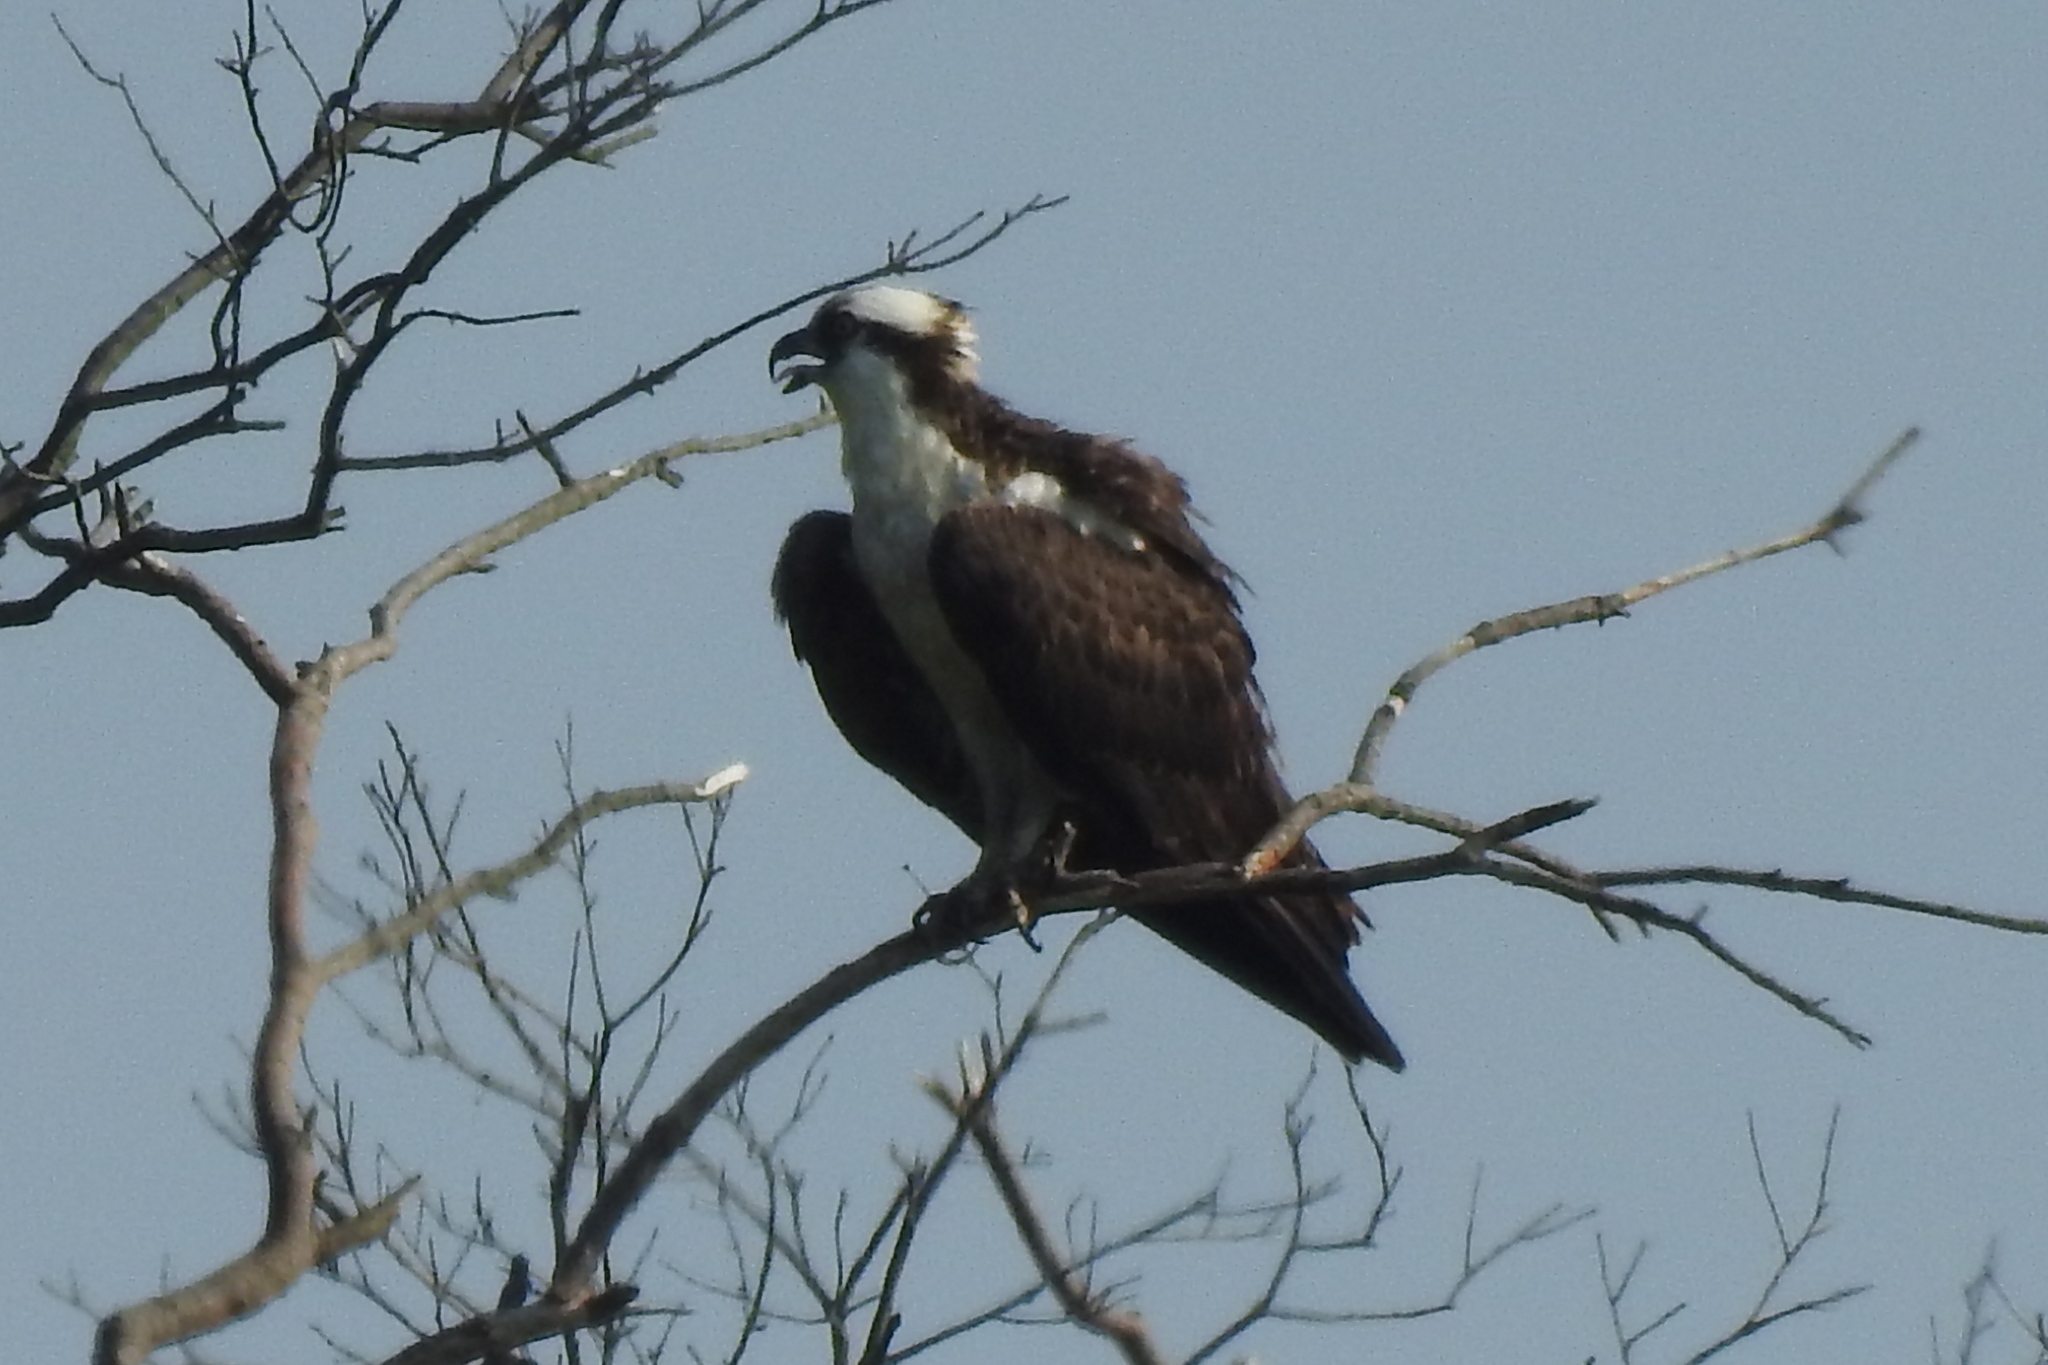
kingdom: Animalia
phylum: Chordata
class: Aves
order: Accipitriformes
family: Pandionidae
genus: Pandion
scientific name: Pandion haliaetus
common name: Osprey
